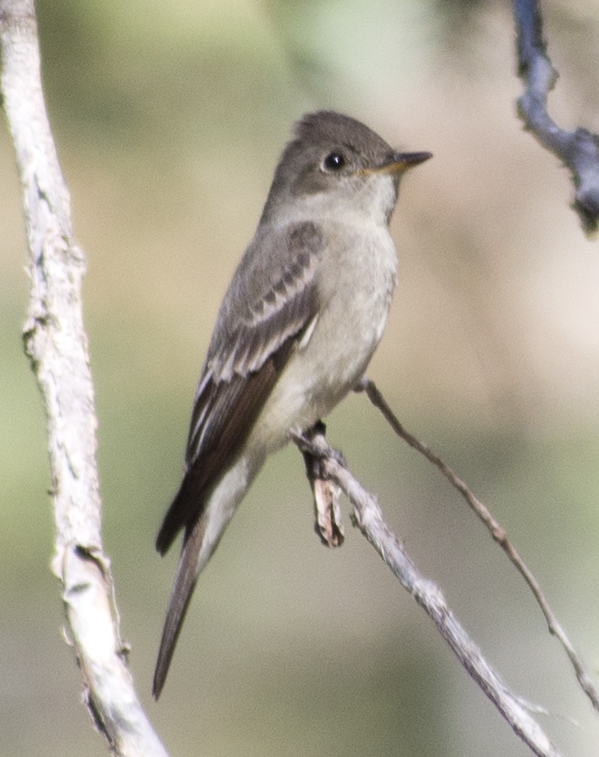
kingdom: Animalia
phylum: Chordata
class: Aves
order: Passeriformes
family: Tyrannidae
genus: Contopus
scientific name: Contopus sordidulus
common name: Western wood-pewee
